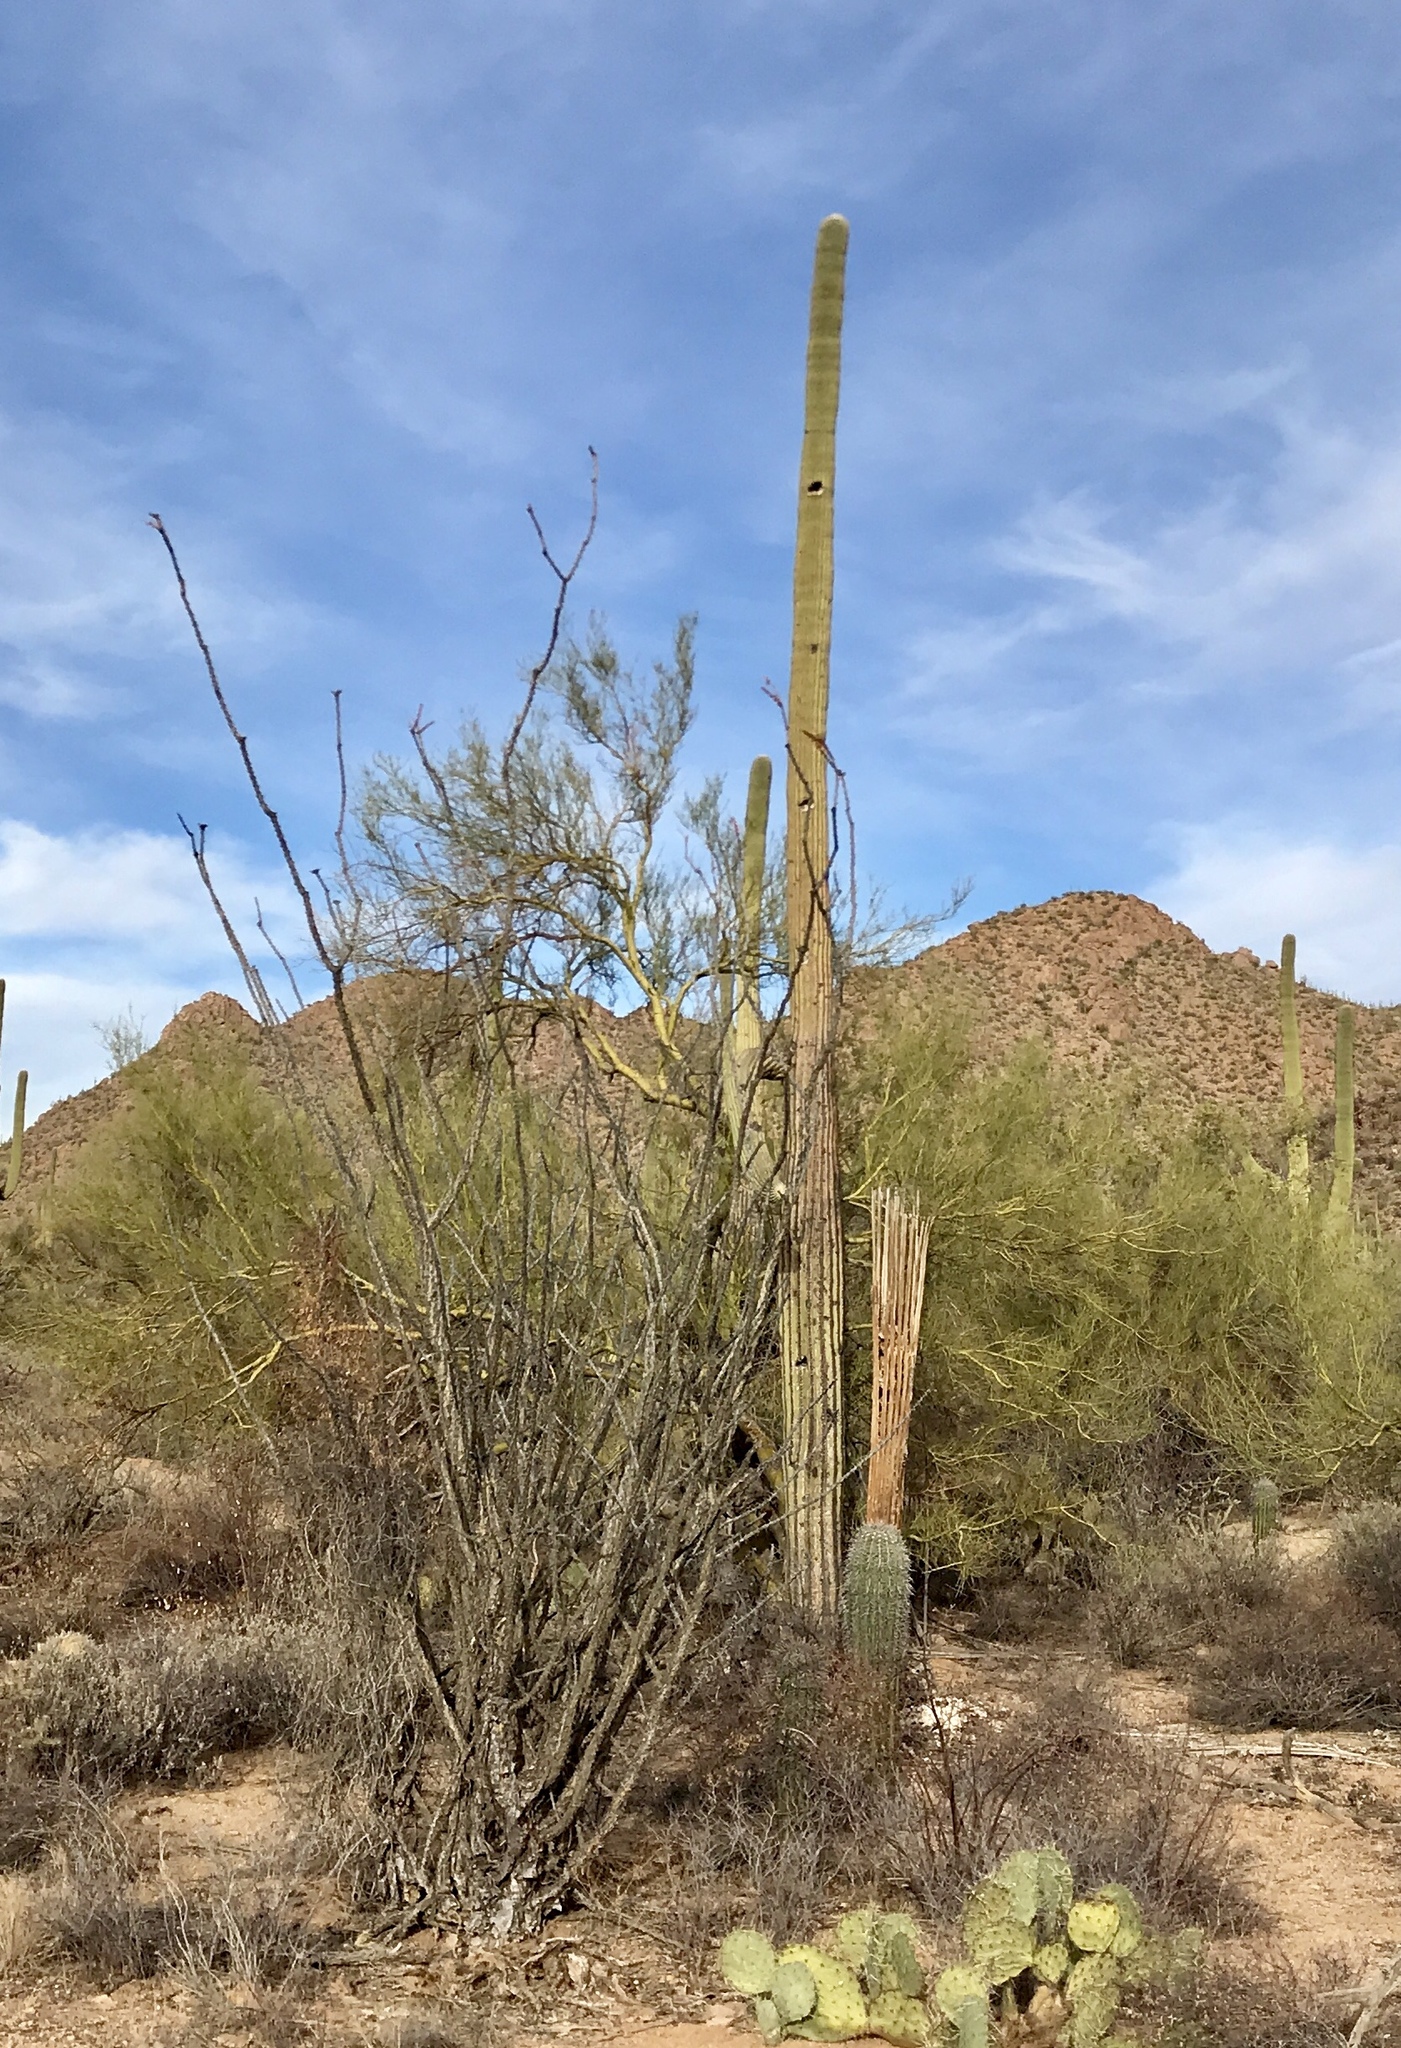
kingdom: Plantae
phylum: Tracheophyta
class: Magnoliopsida
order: Caryophyllales
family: Cactaceae
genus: Carnegiea
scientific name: Carnegiea gigantea
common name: Saguaro
